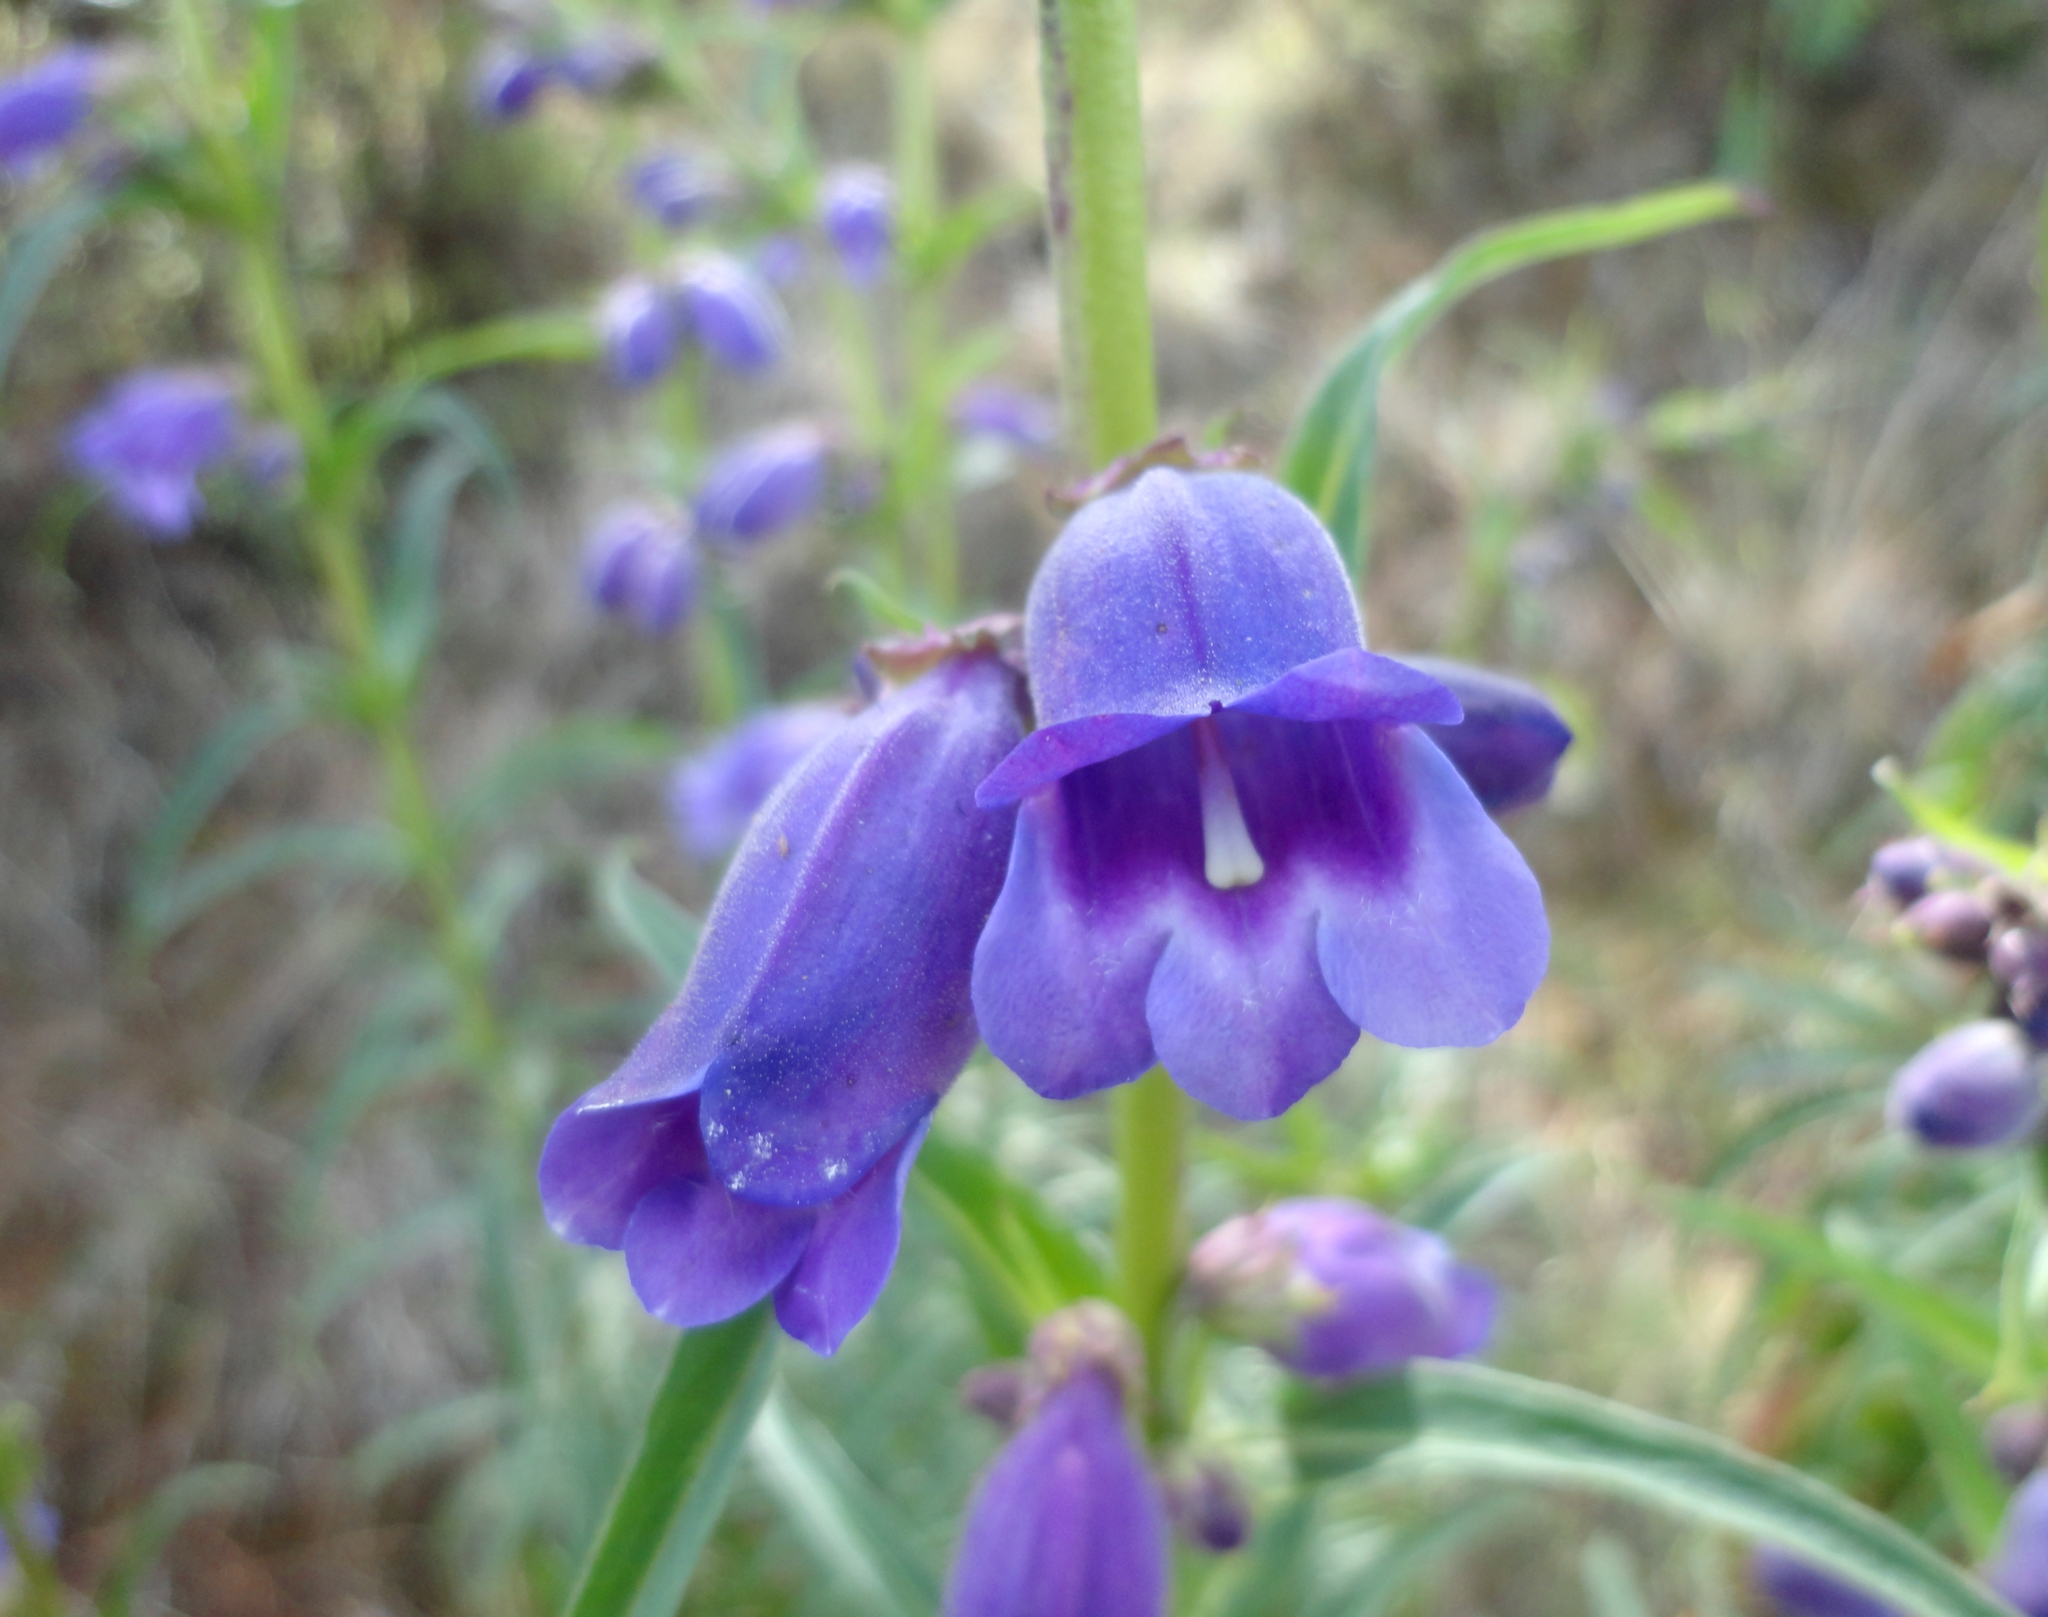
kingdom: Plantae
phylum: Tracheophyta
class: Magnoliopsida
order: Lamiales
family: Plantaginaceae
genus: Penstemon
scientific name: Penstemon gentianoides
